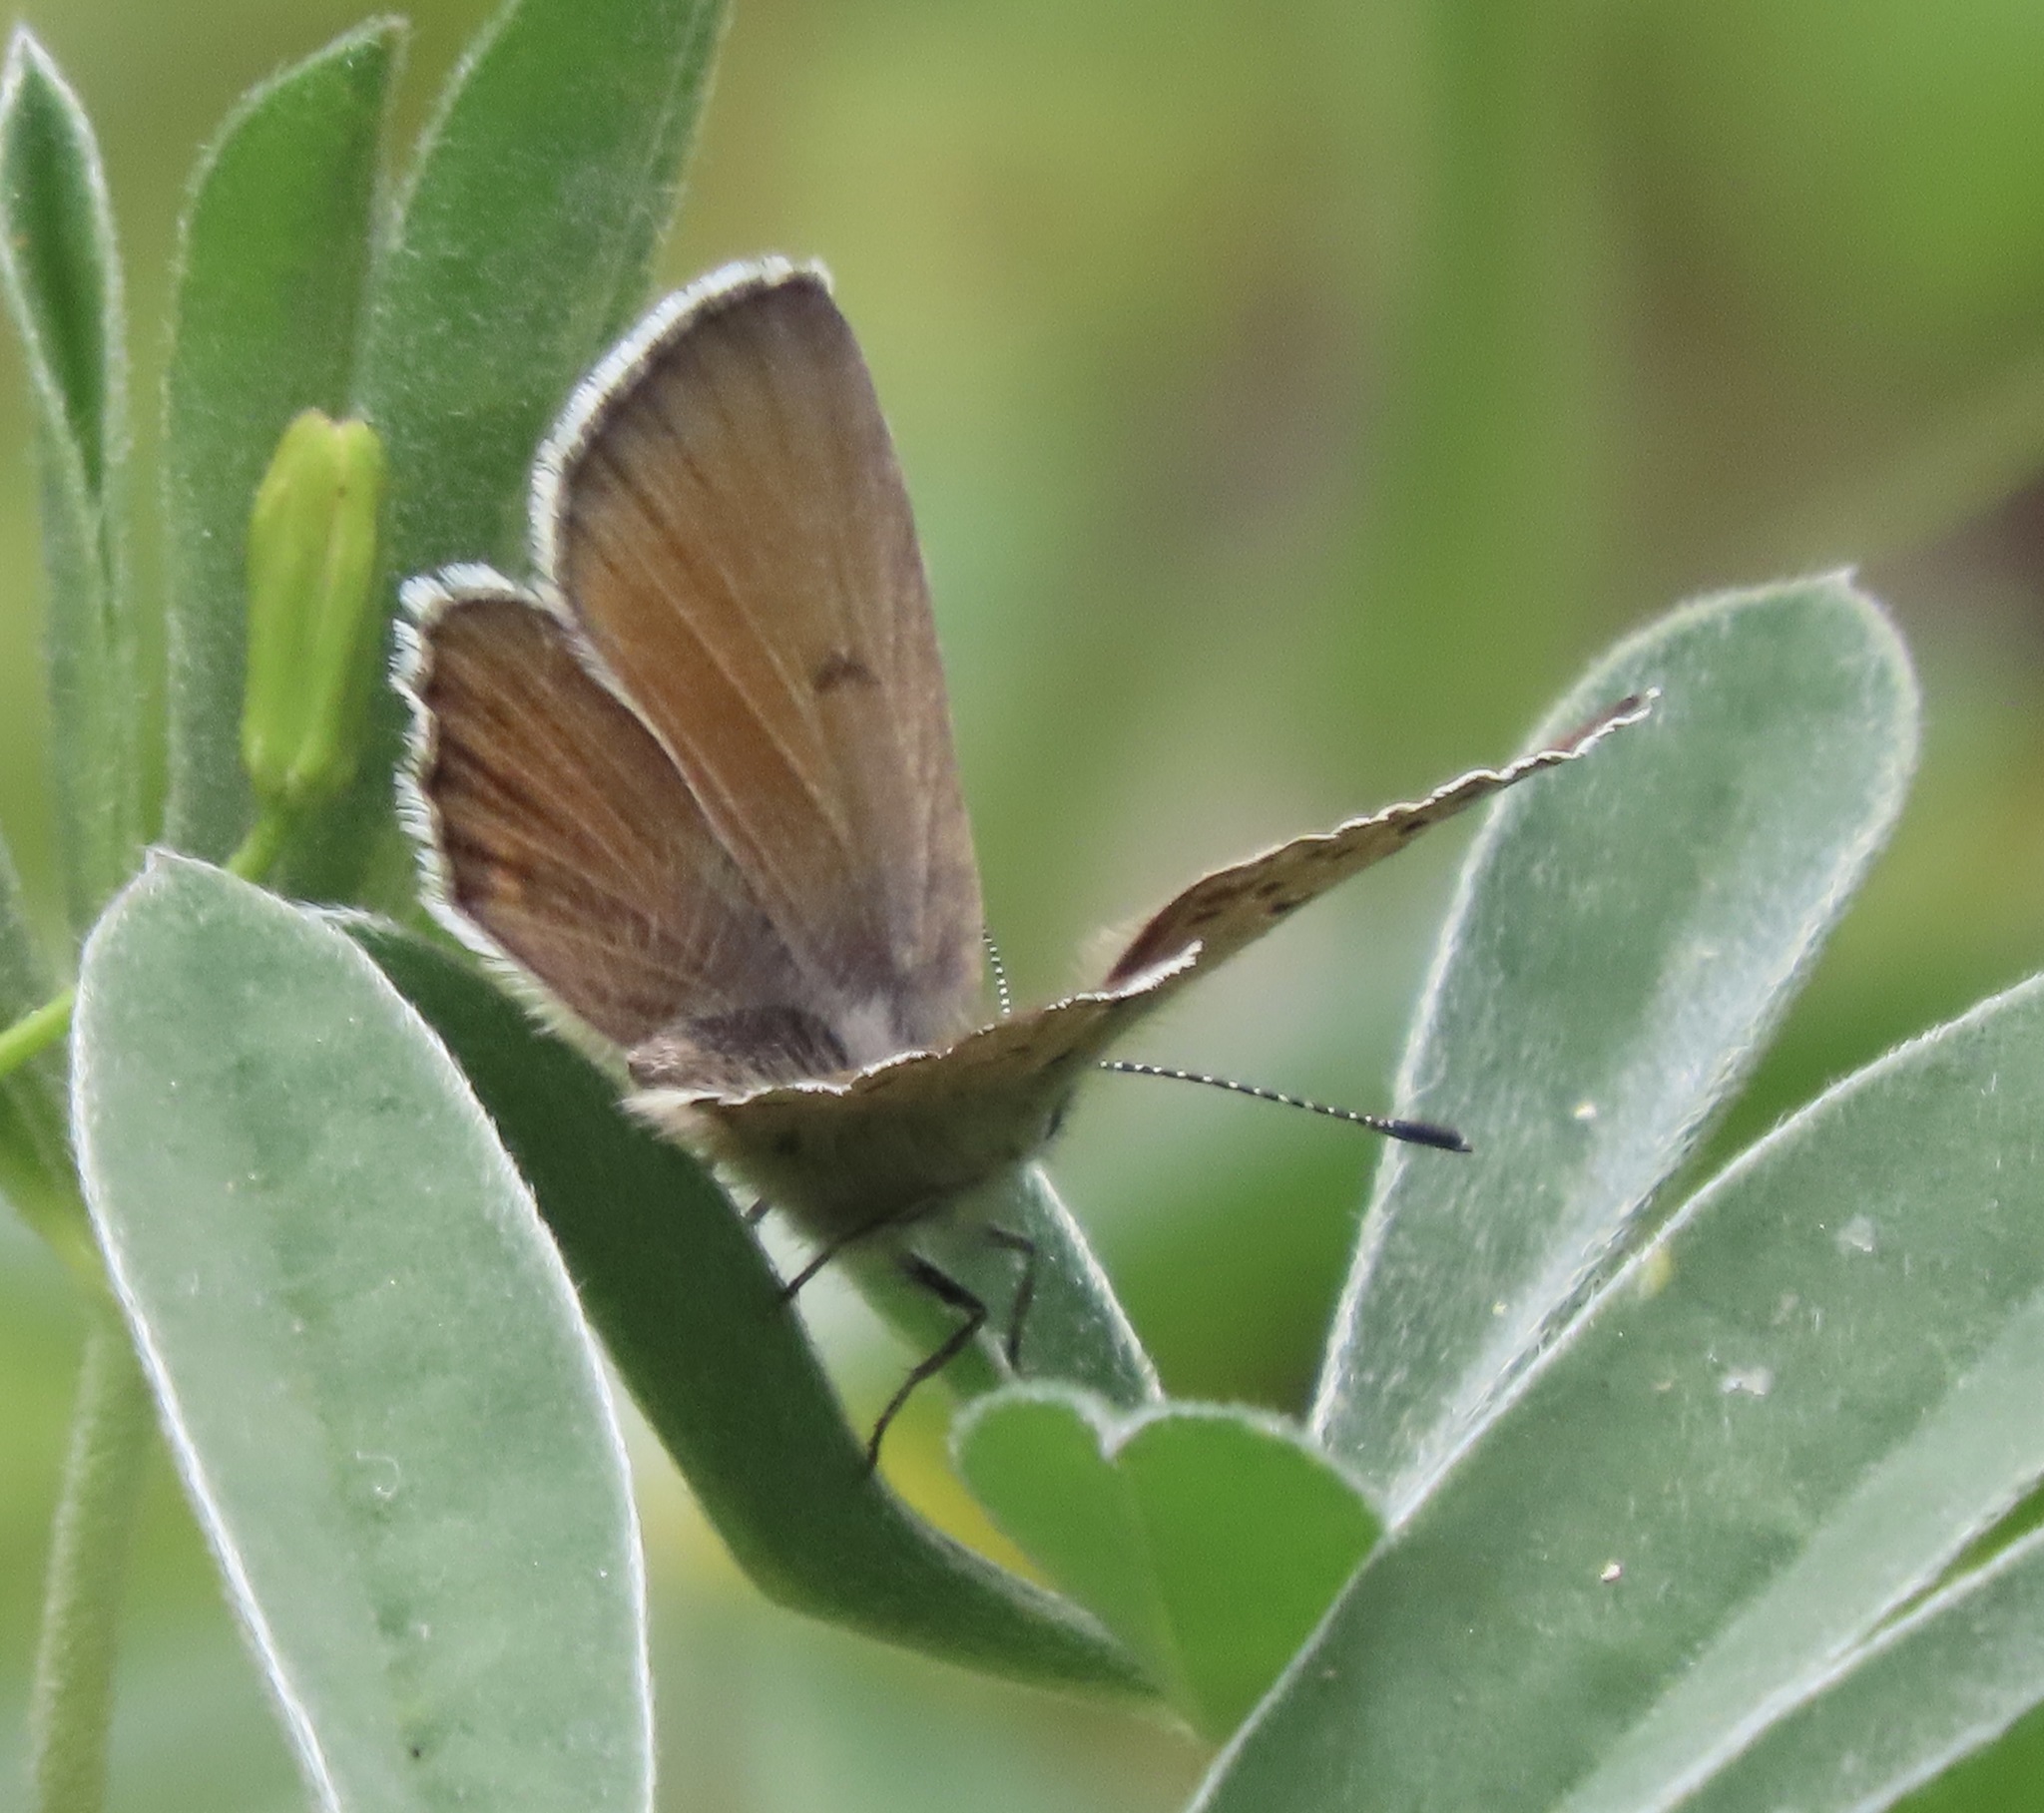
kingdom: Animalia
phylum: Arthropoda
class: Insecta
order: Lepidoptera
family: Lycaenidae
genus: Icaricia
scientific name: Icaricia icarioides
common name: Boisduval's blue
